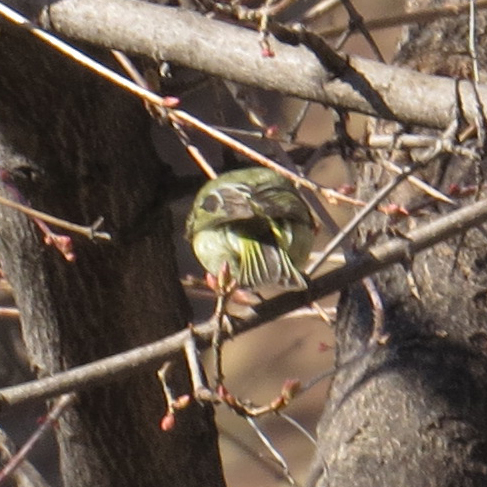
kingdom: Animalia
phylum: Chordata
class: Aves
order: Passeriformes
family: Regulidae
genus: Regulus
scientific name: Regulus calendula
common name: Ruby-crowned kinglet
